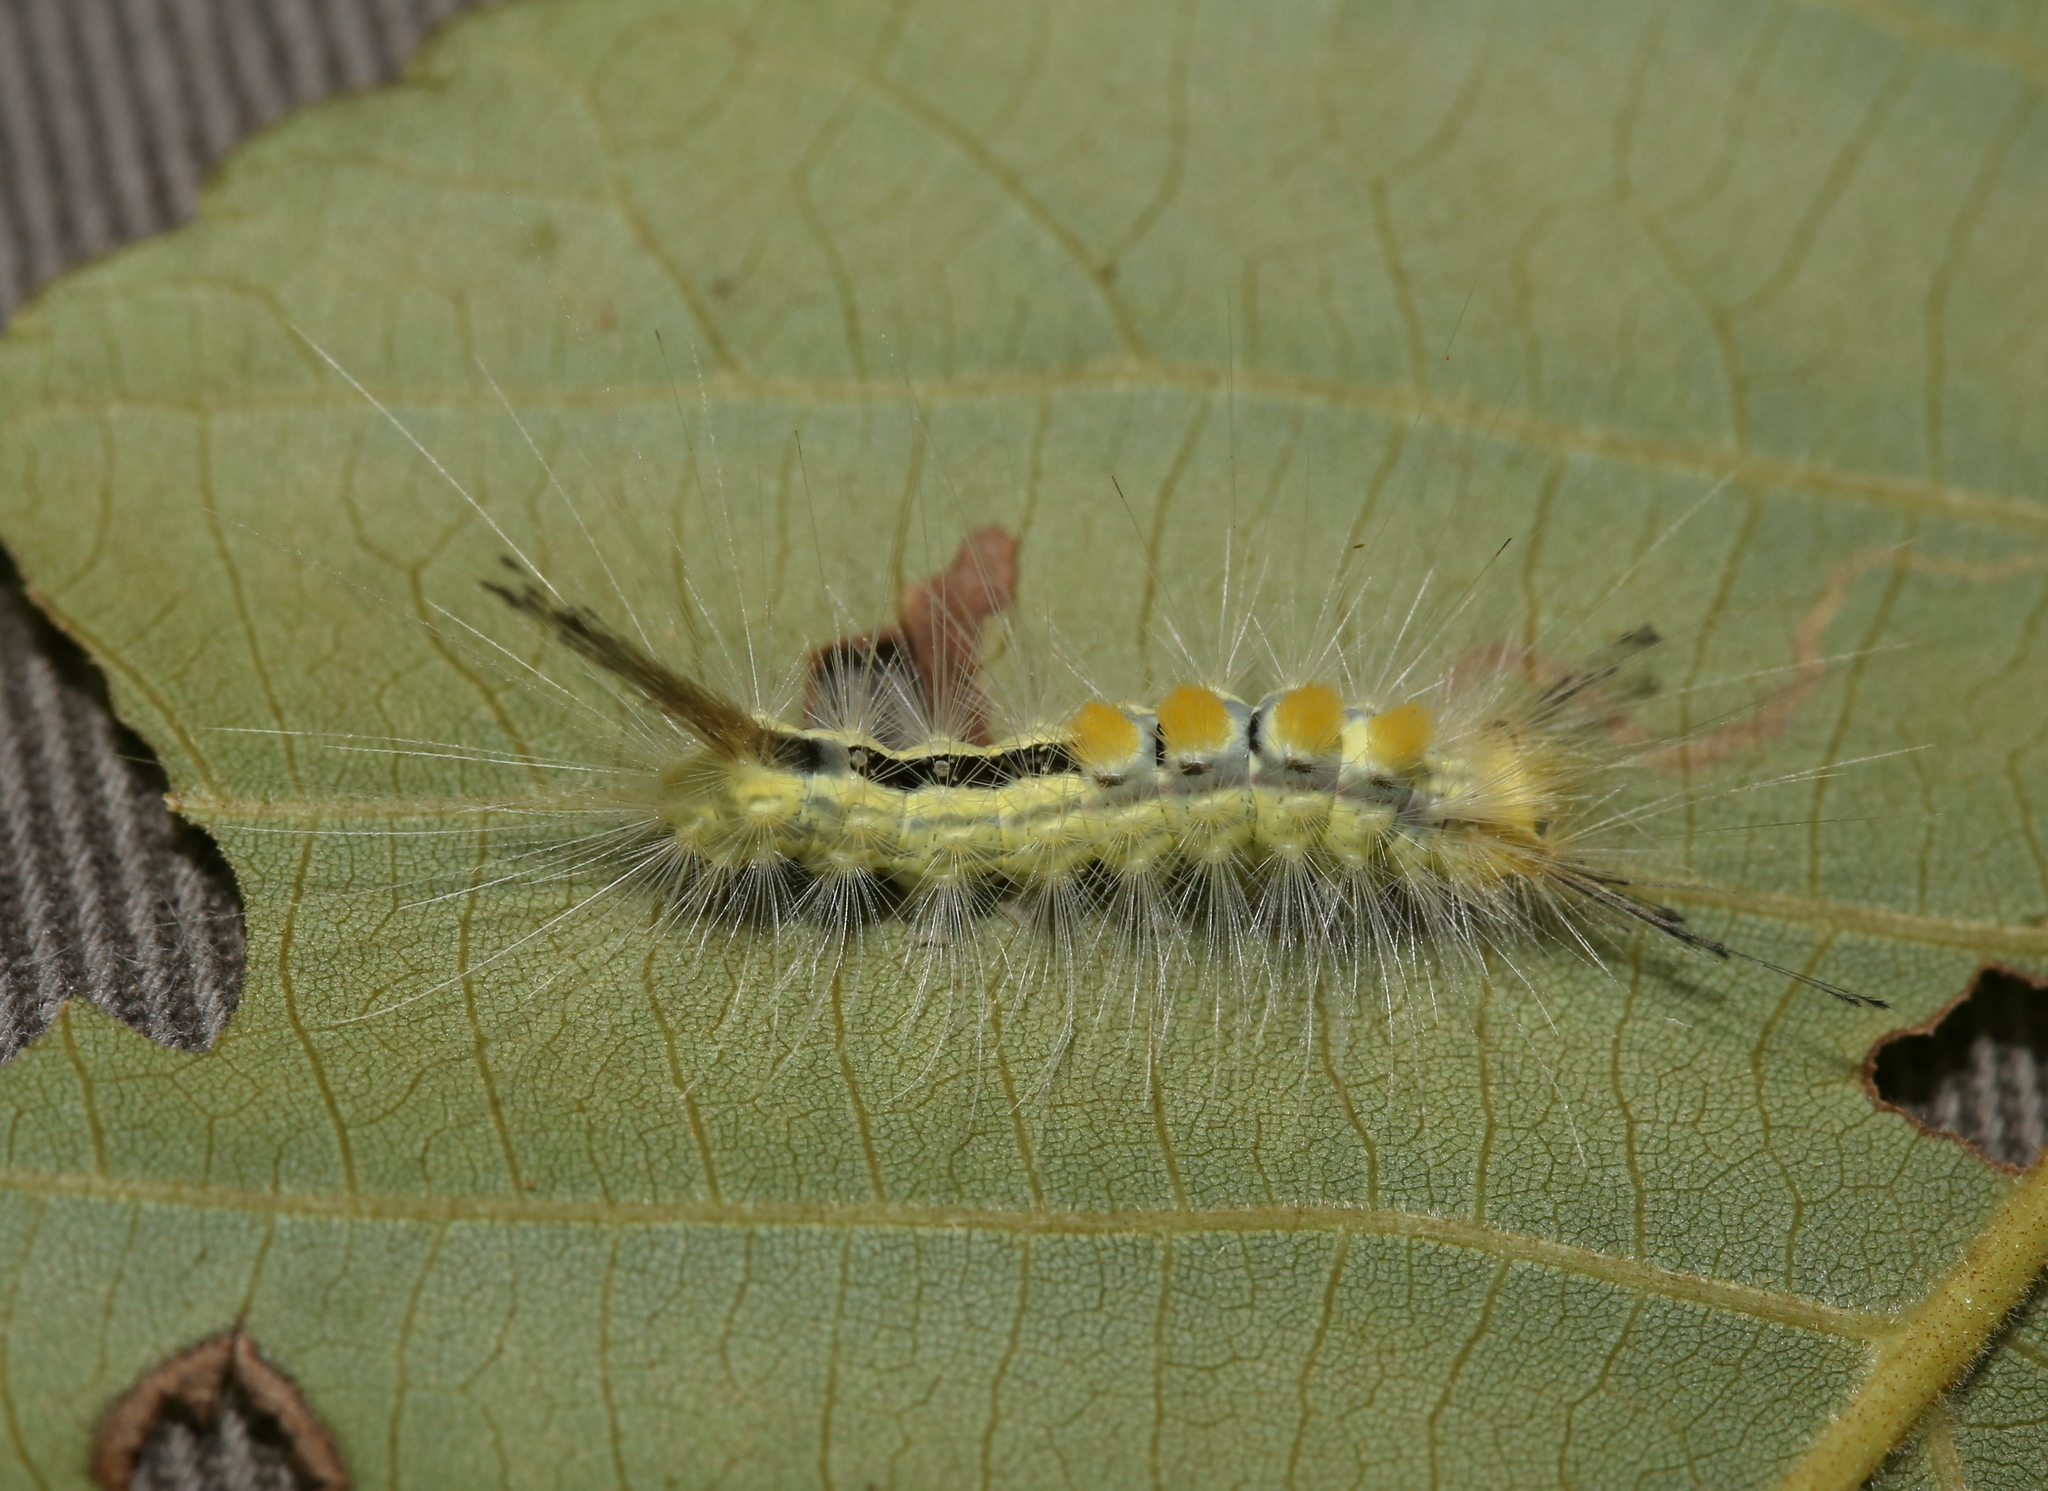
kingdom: Animalia
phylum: Arthropoda
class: Insecta
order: Lepidoptera
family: Erebidae
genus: Orgyia
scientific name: Orgyia leucostigma
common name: White-marked tussock moth
